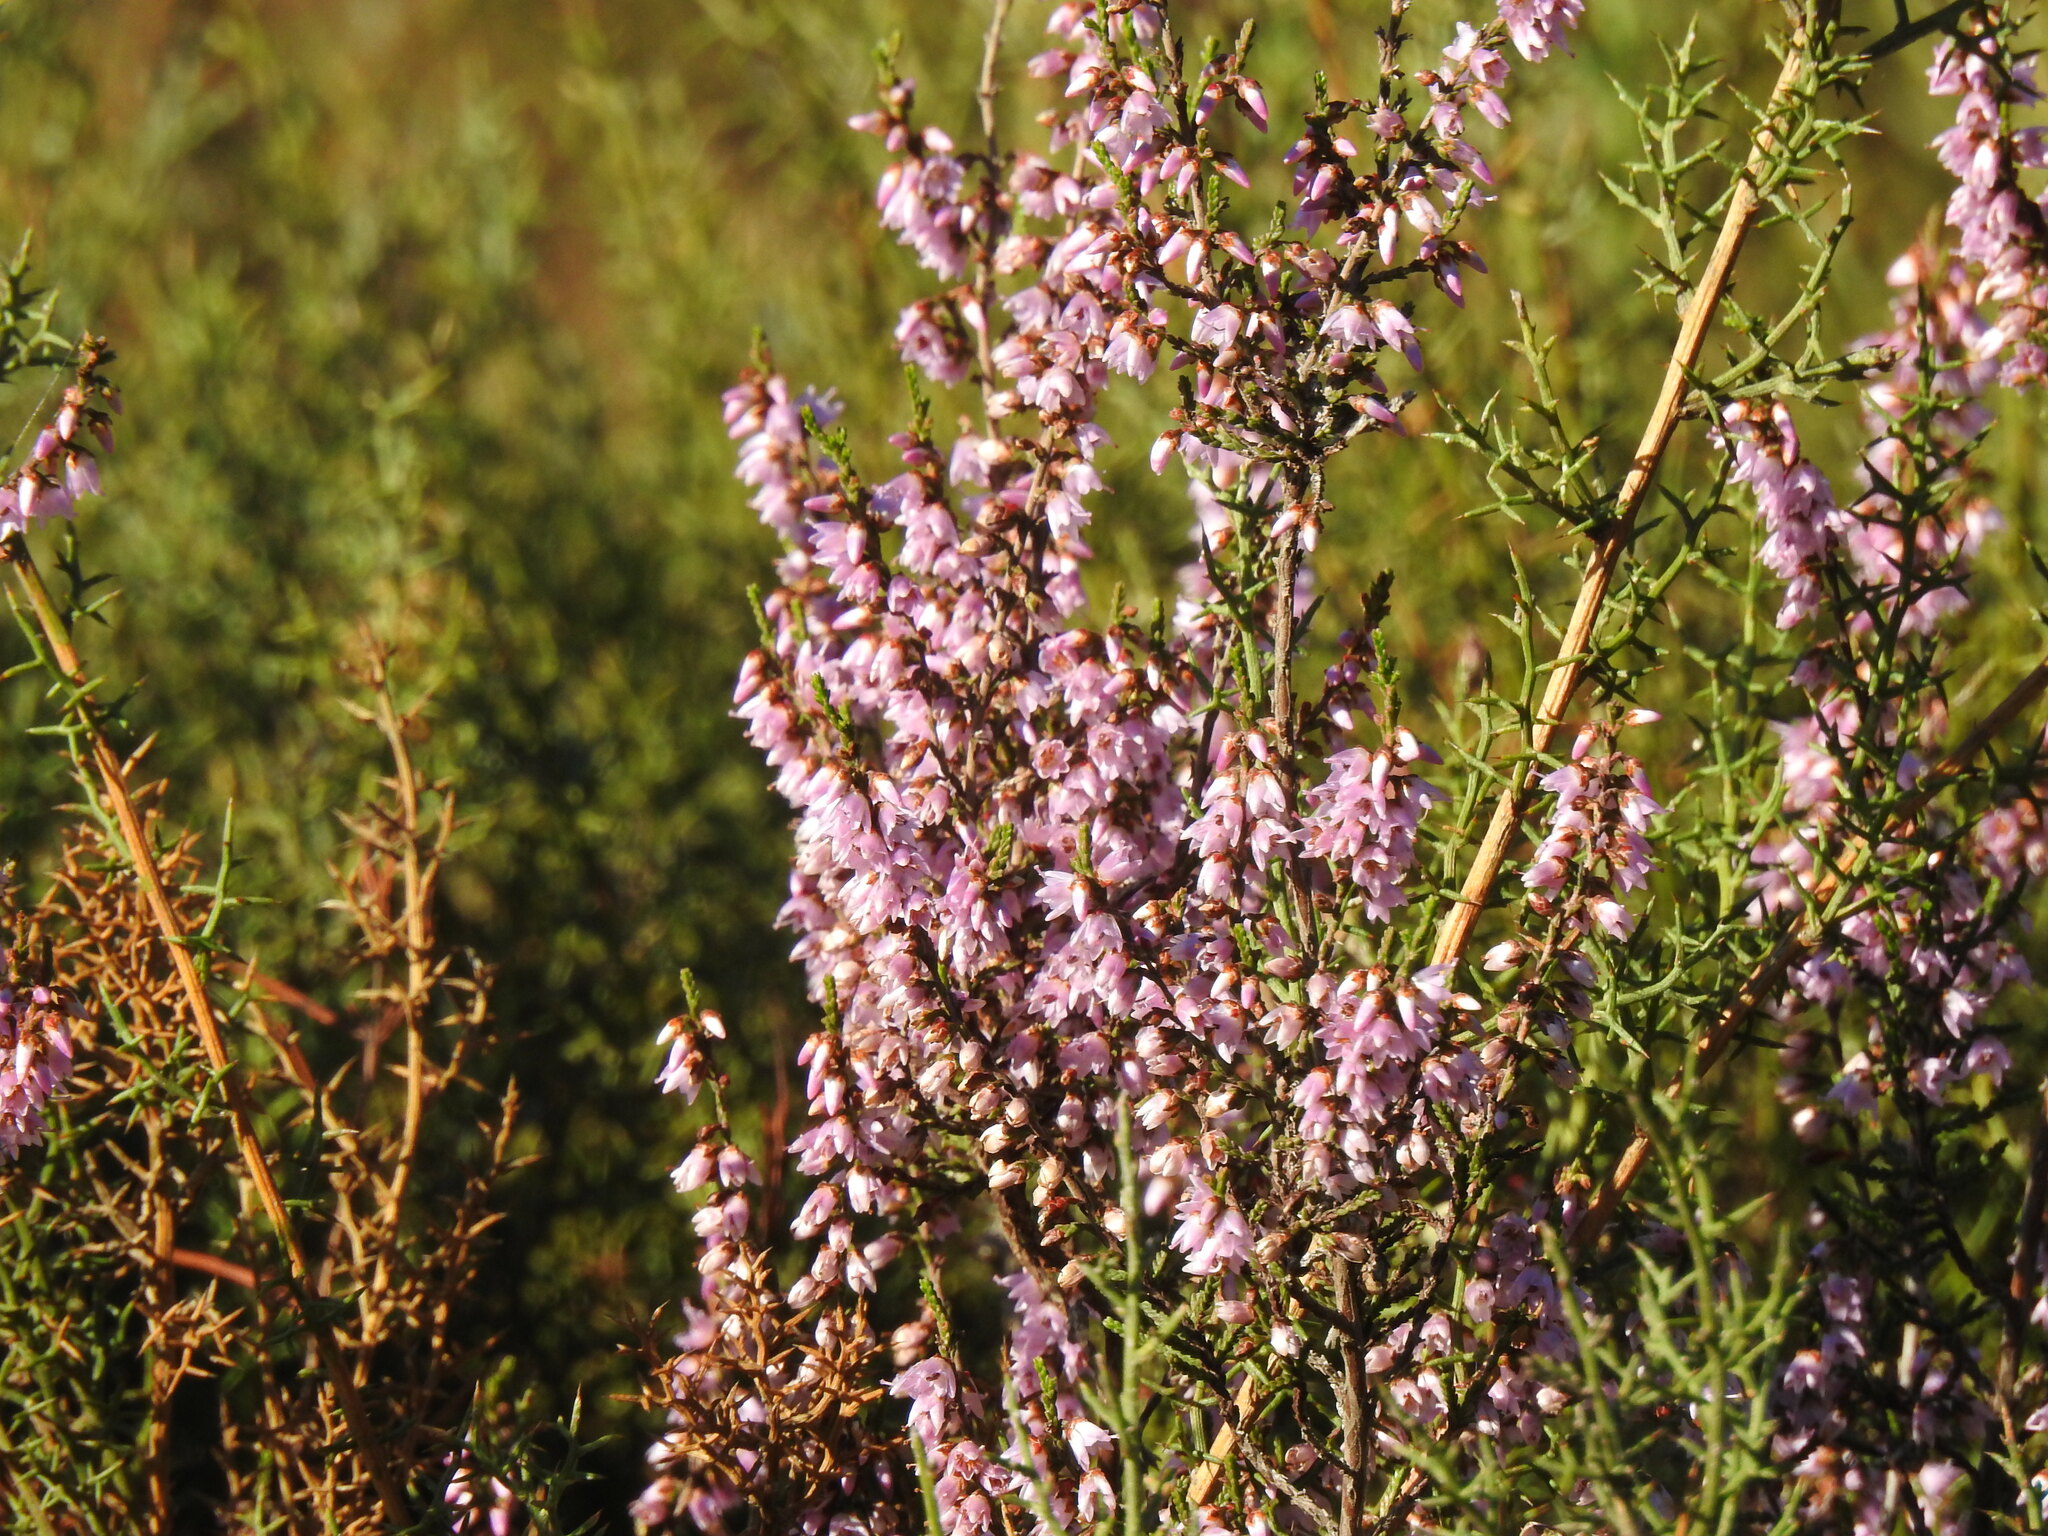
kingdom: Plantae
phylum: Tracheophyta
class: Magnoliopsida
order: Ericales
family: Ericaceae
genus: Calluna
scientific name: Calluna vulgaris
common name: Heather
